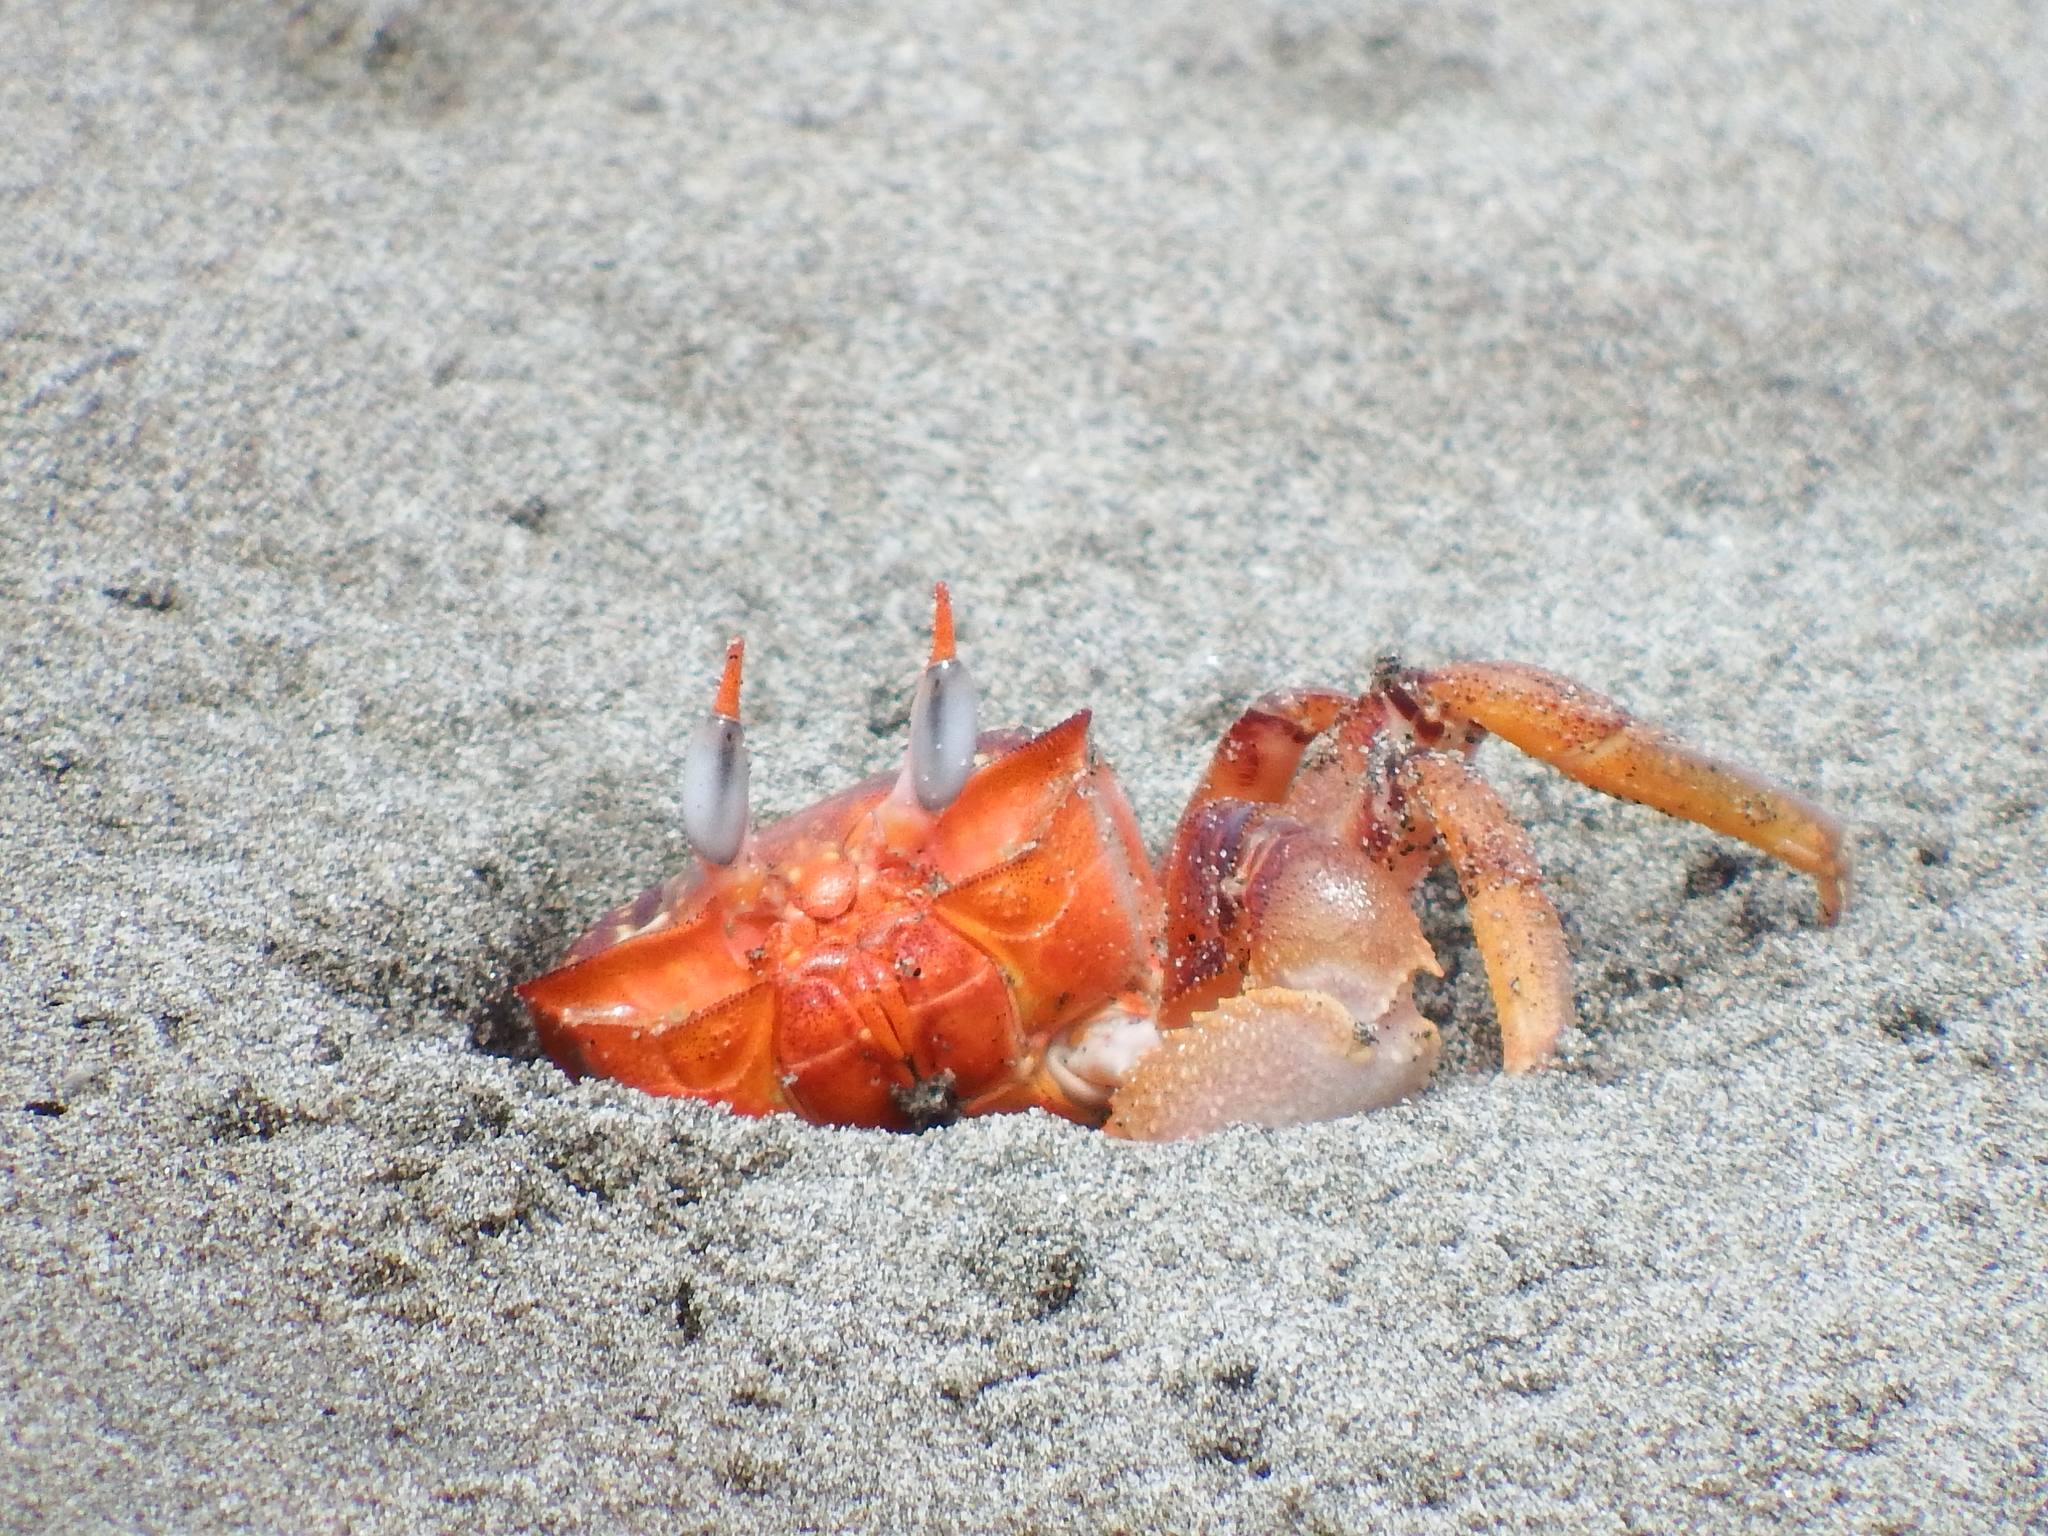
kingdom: Animalia
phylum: Arthropoda
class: Malacostraca
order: Decapoda
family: Ocypodidae
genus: Ocypode
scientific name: Ocypode gaudichaudii
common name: Pacific ghost crab
